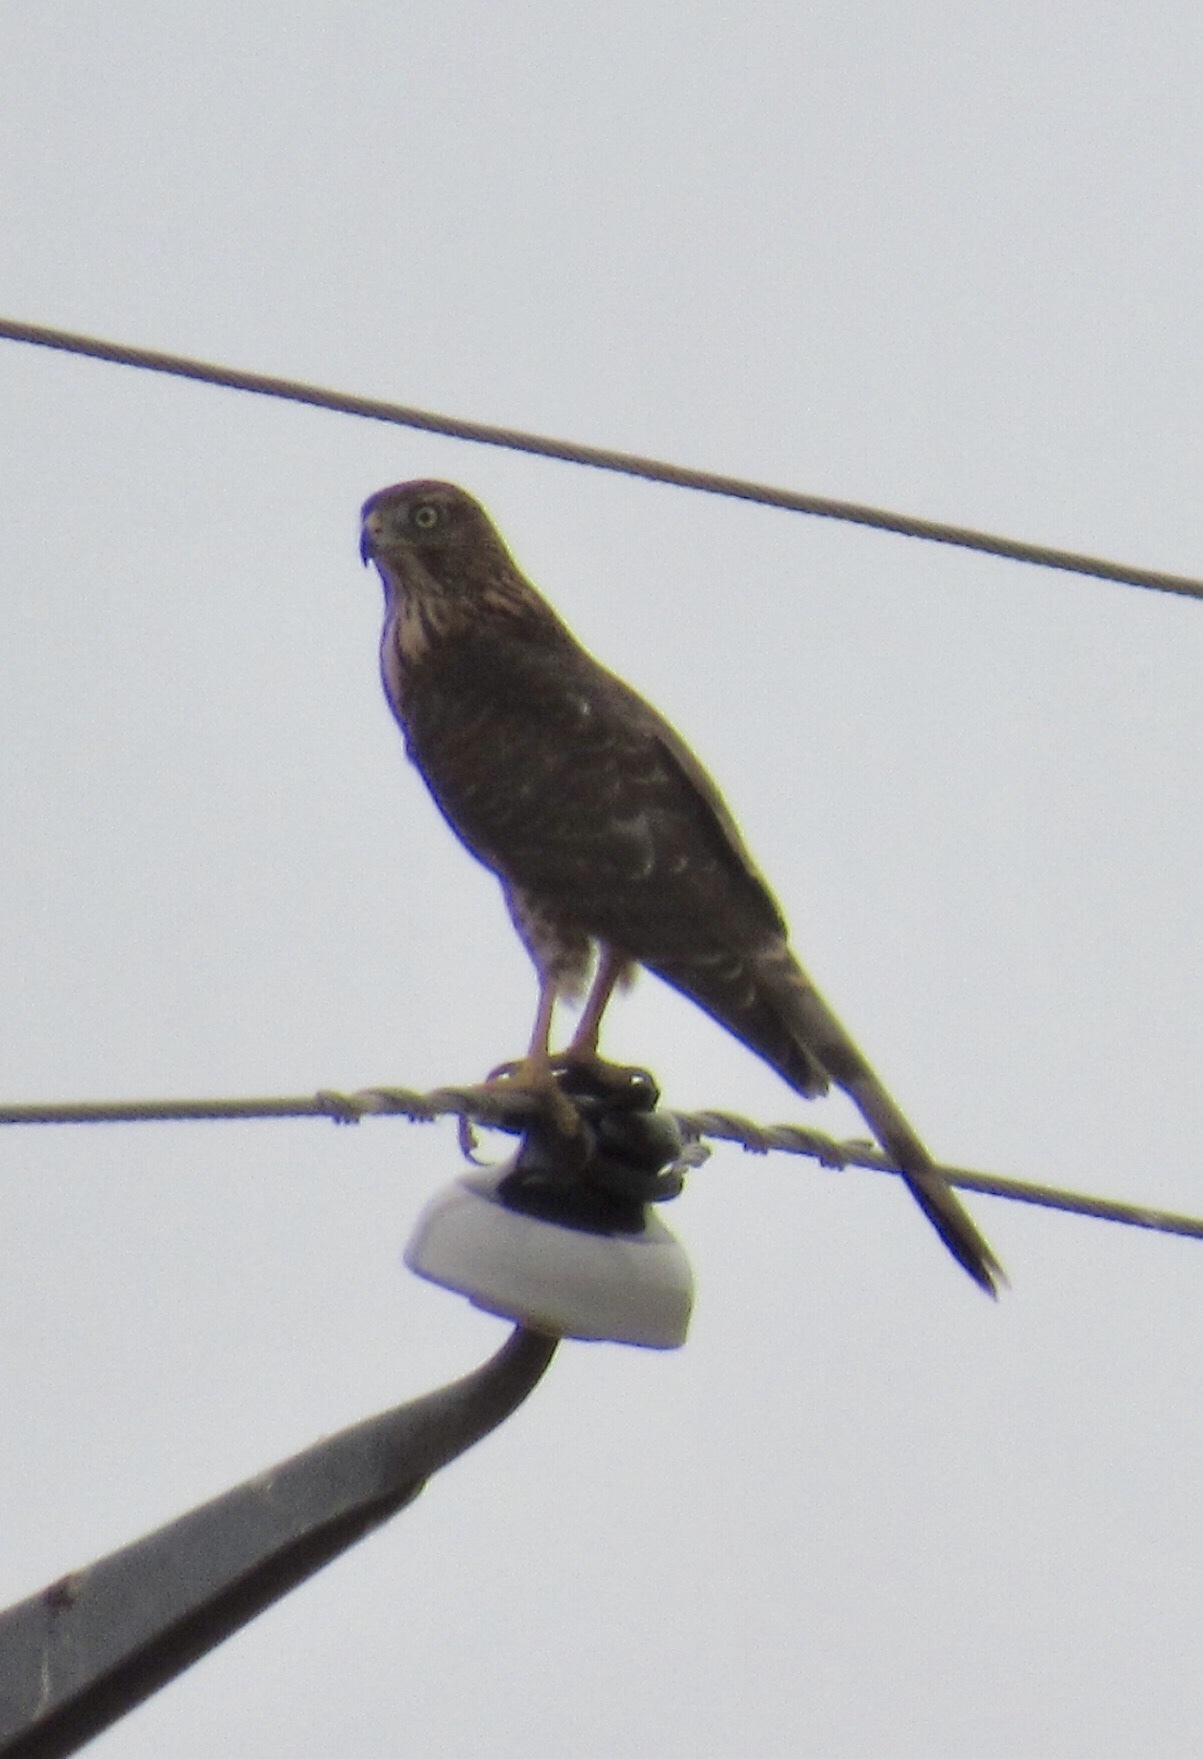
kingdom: Animalia
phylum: Chordata
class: Aves
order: Accipitriformes
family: Accipitridae
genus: Accipiter
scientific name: Accipiter cooperii
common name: Cooper's hawk
